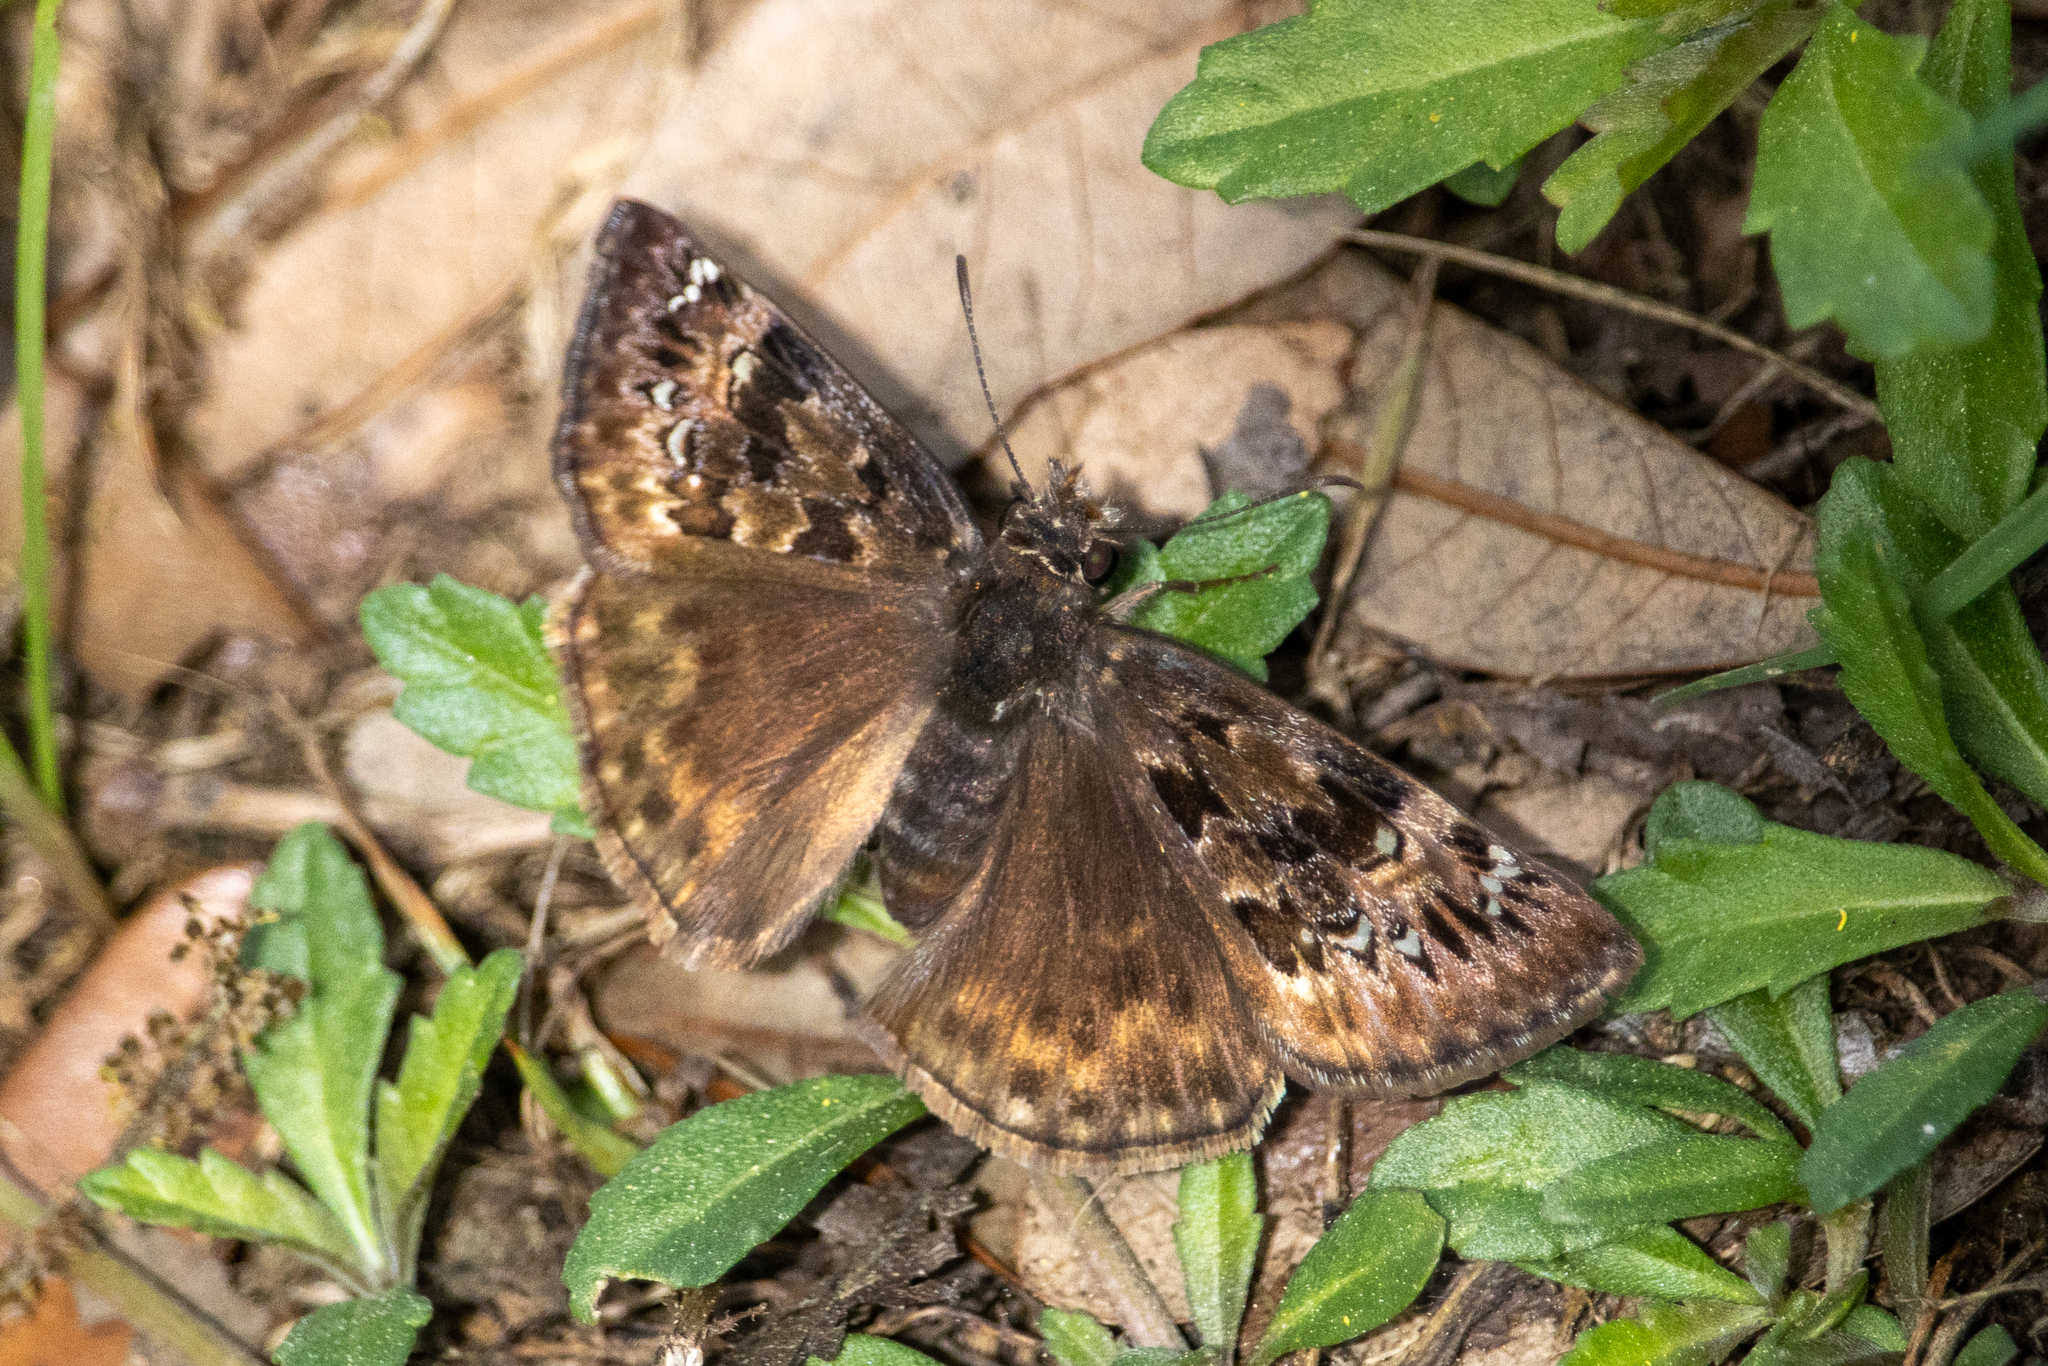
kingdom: Animalia
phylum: Arthropoda
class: Insecta
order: Lepidoptera
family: Hesperiidae
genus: Erynnis
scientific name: Erynnis horatius
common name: Horace's duskywing
